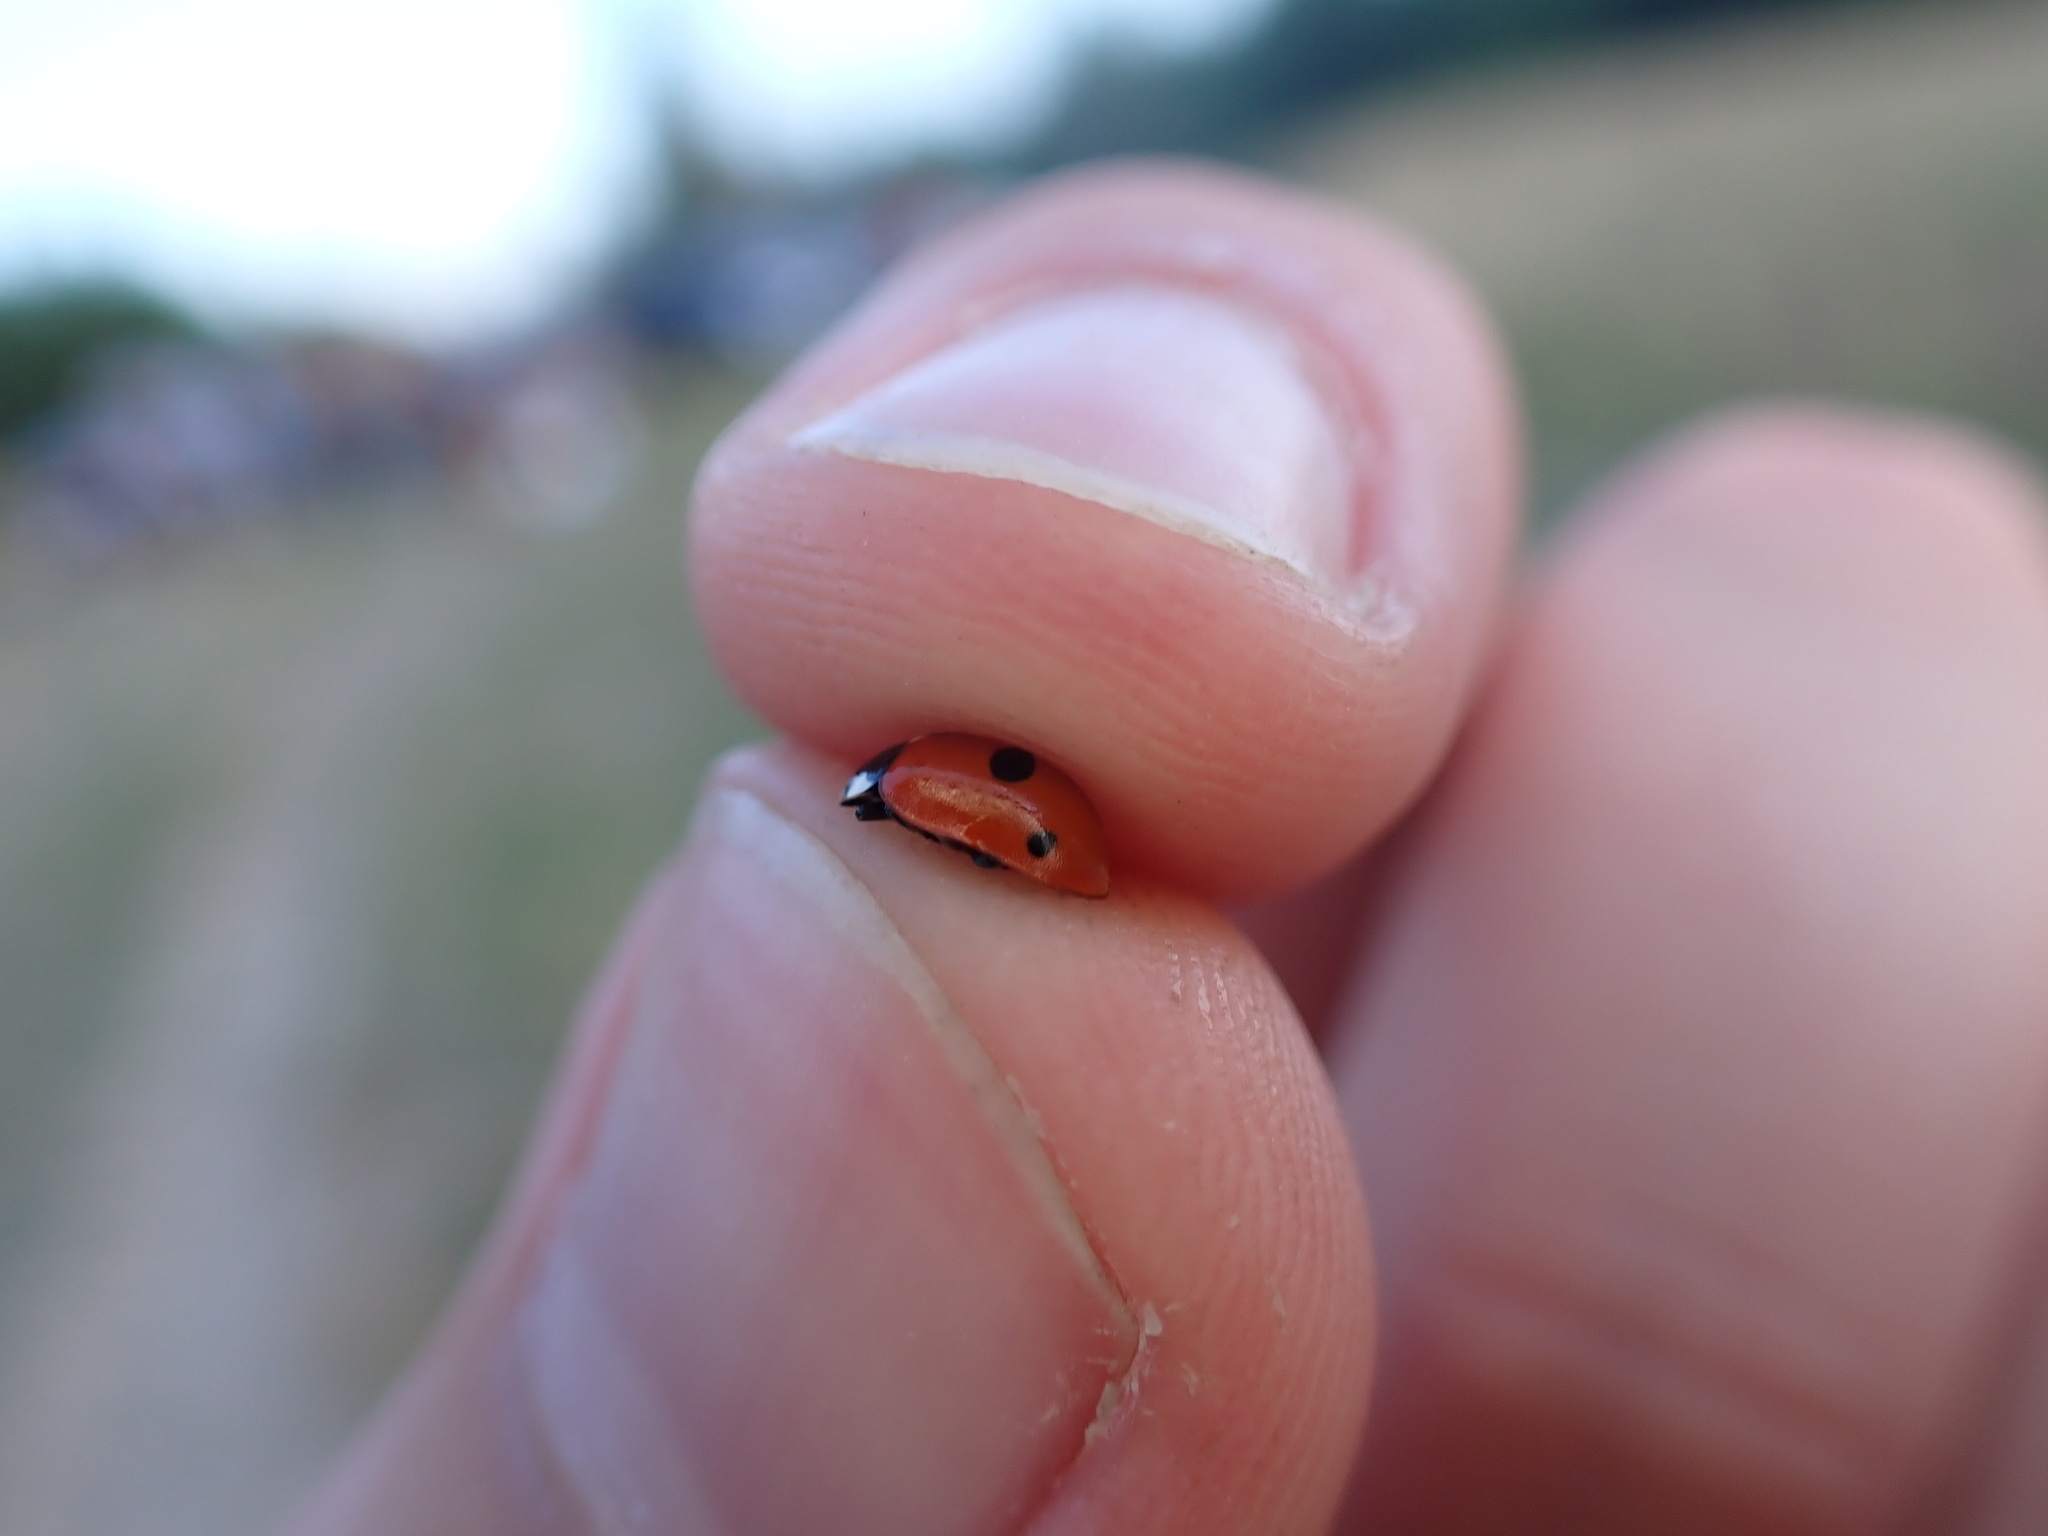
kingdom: Animalia
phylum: Arthropoda
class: Insecta
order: Coleoptera
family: Coccinellidae
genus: Coccinella
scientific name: Coccinella quinquepunctata
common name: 5-spot ladybird
